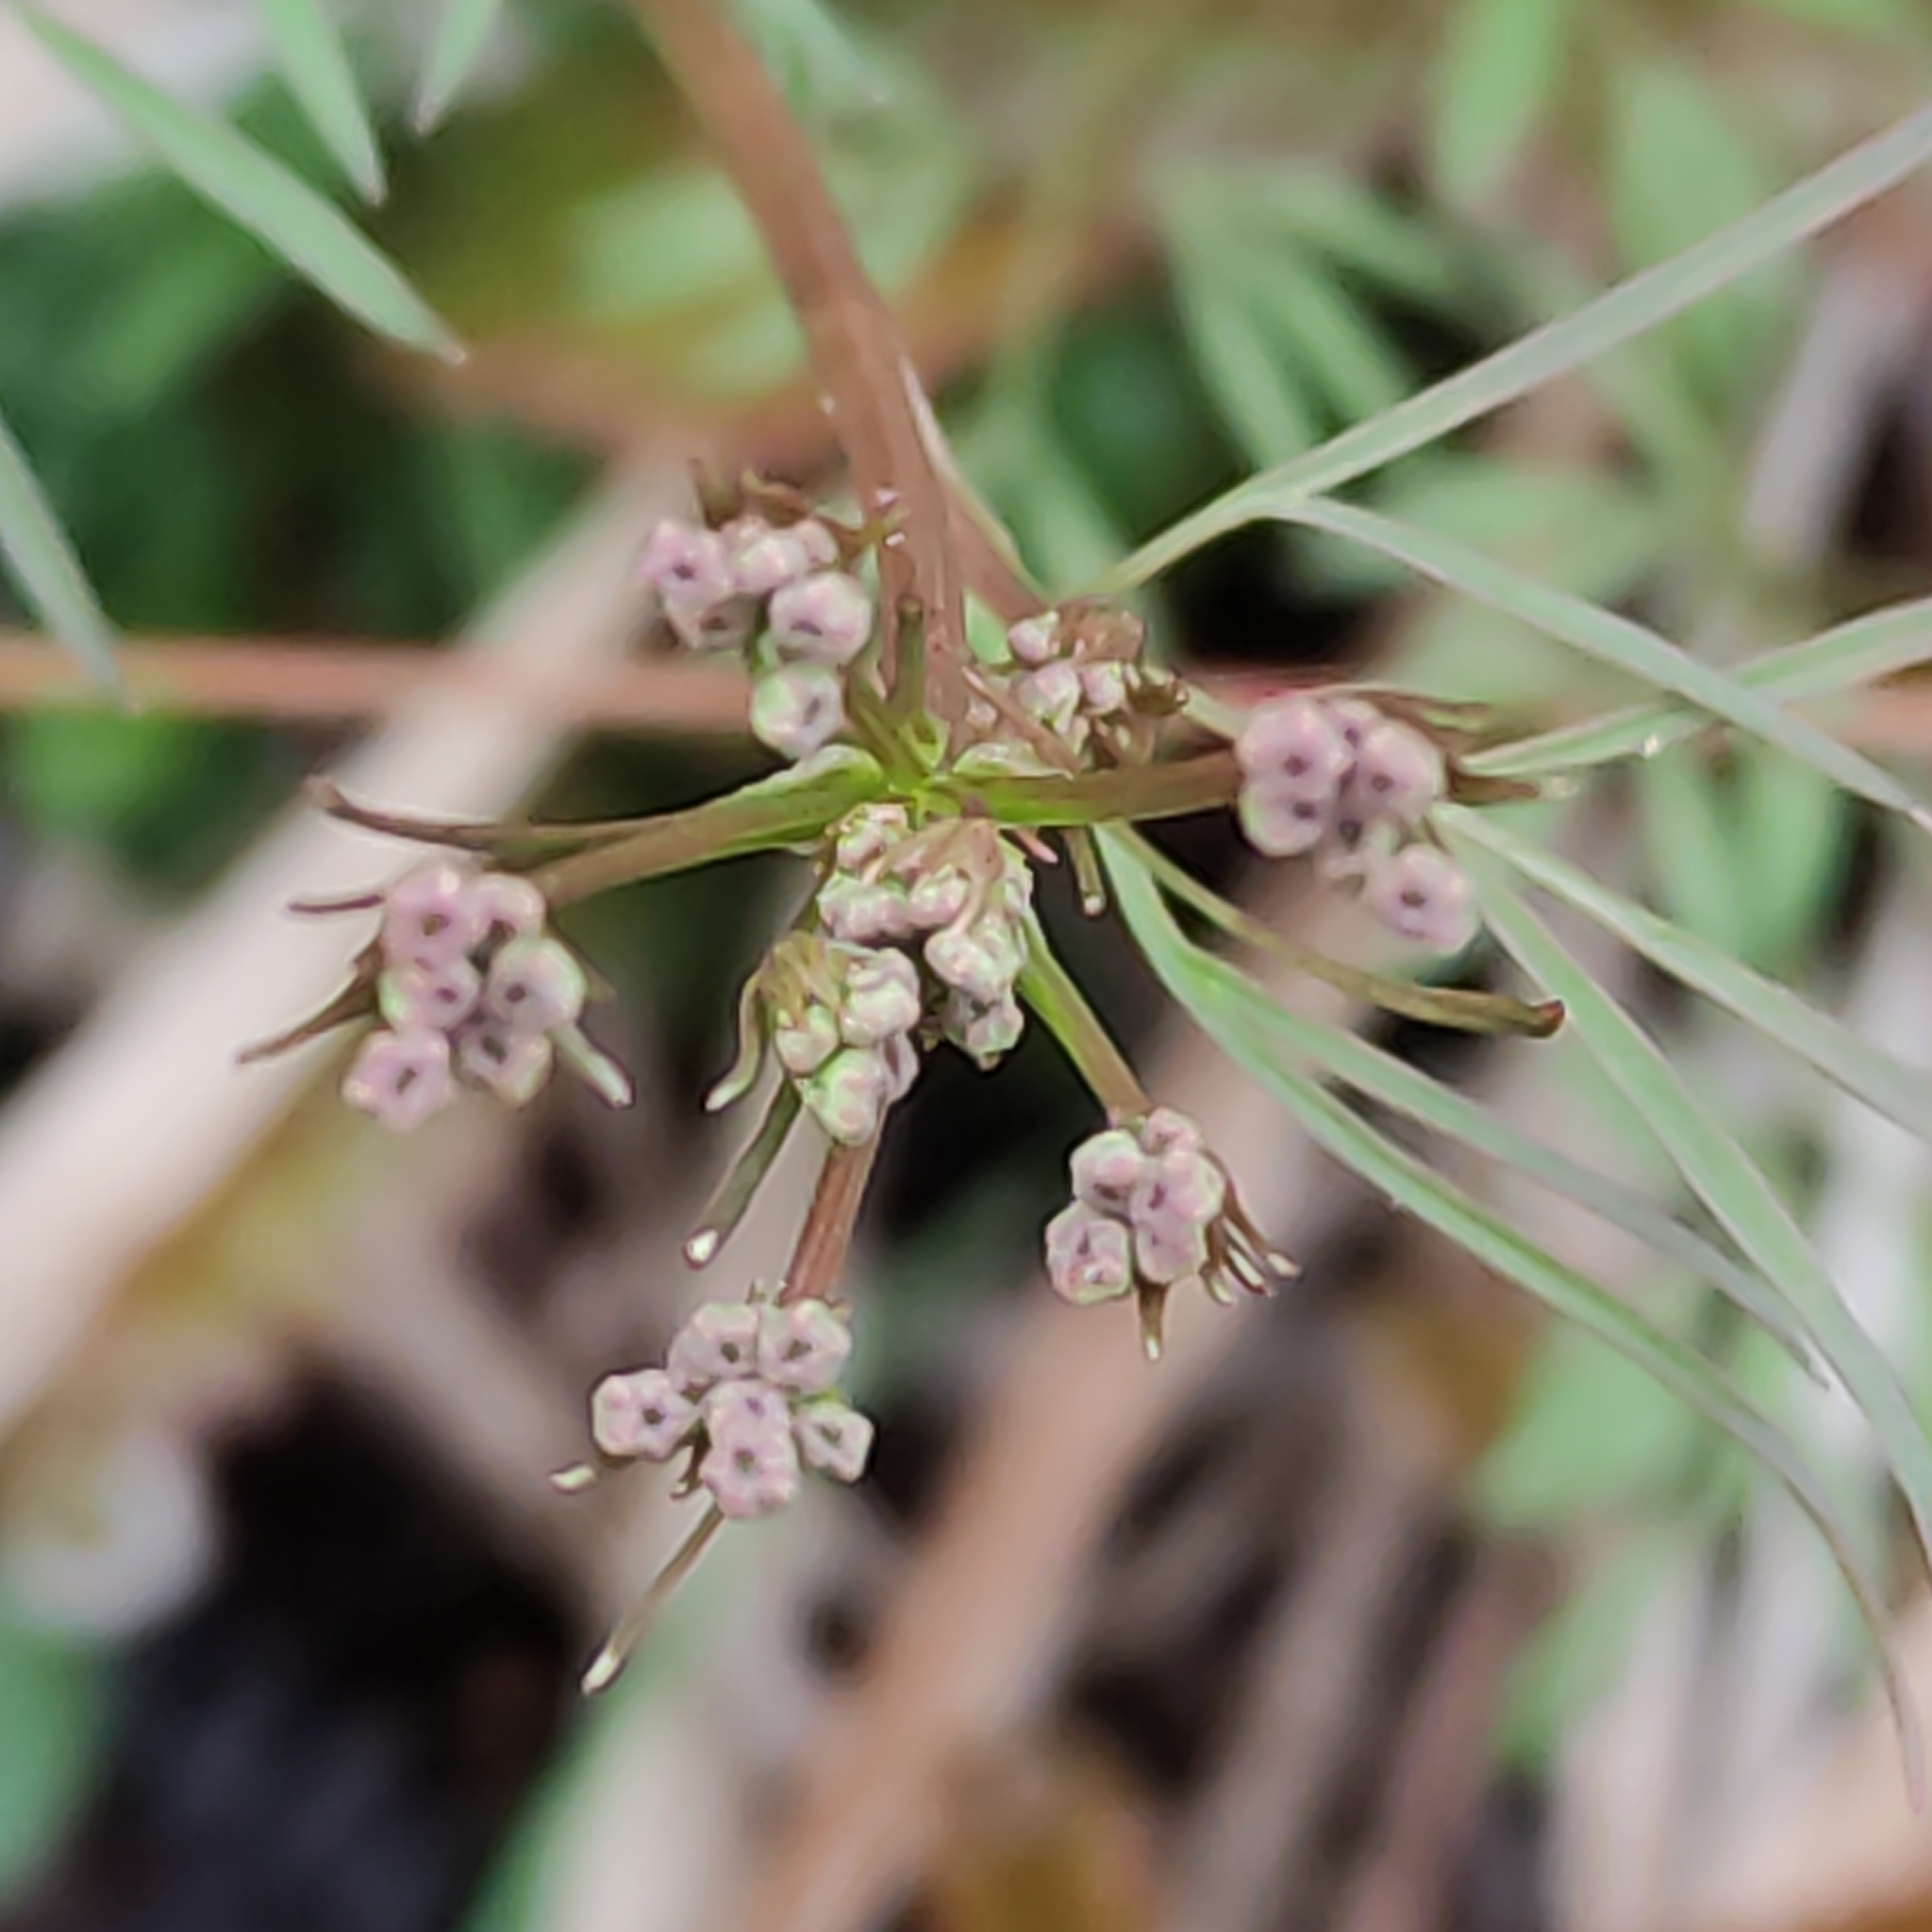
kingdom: Plantae
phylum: Tracheophyta
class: Magnoliopsida
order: Apiales
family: Apiaceae
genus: Anisotome
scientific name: Anisotome filifolia
